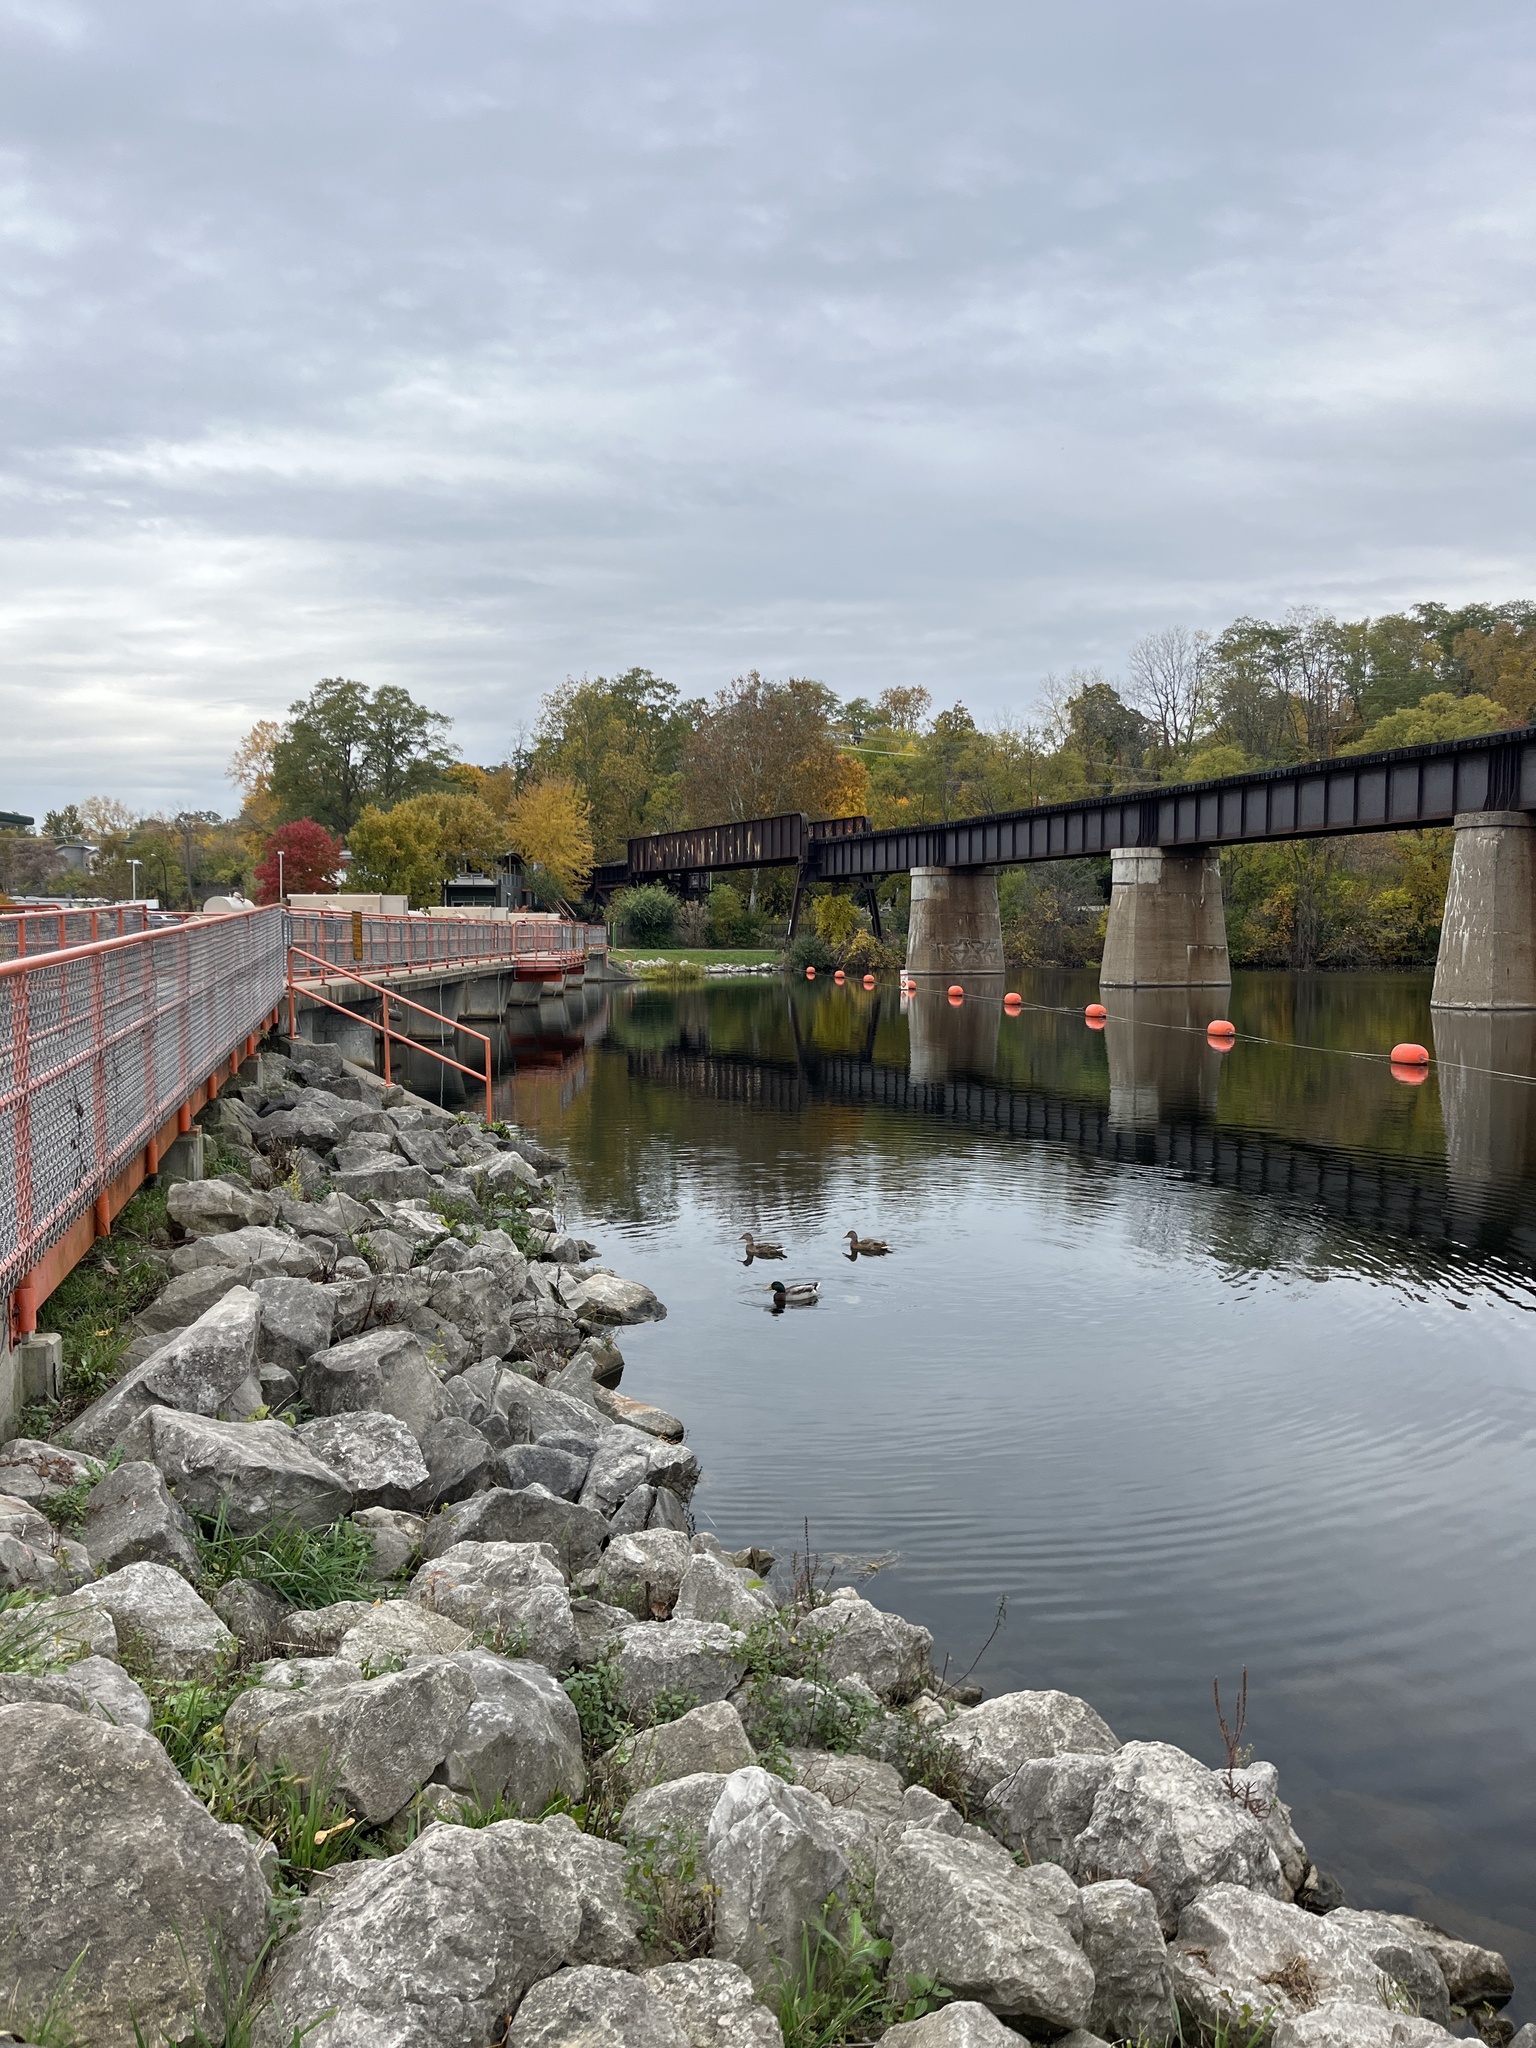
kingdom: Animalia
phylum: Chordata
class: Aves
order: Anseriformes
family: Anatidae
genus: Anas
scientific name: Anas platyrhynchos
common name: Mallard
